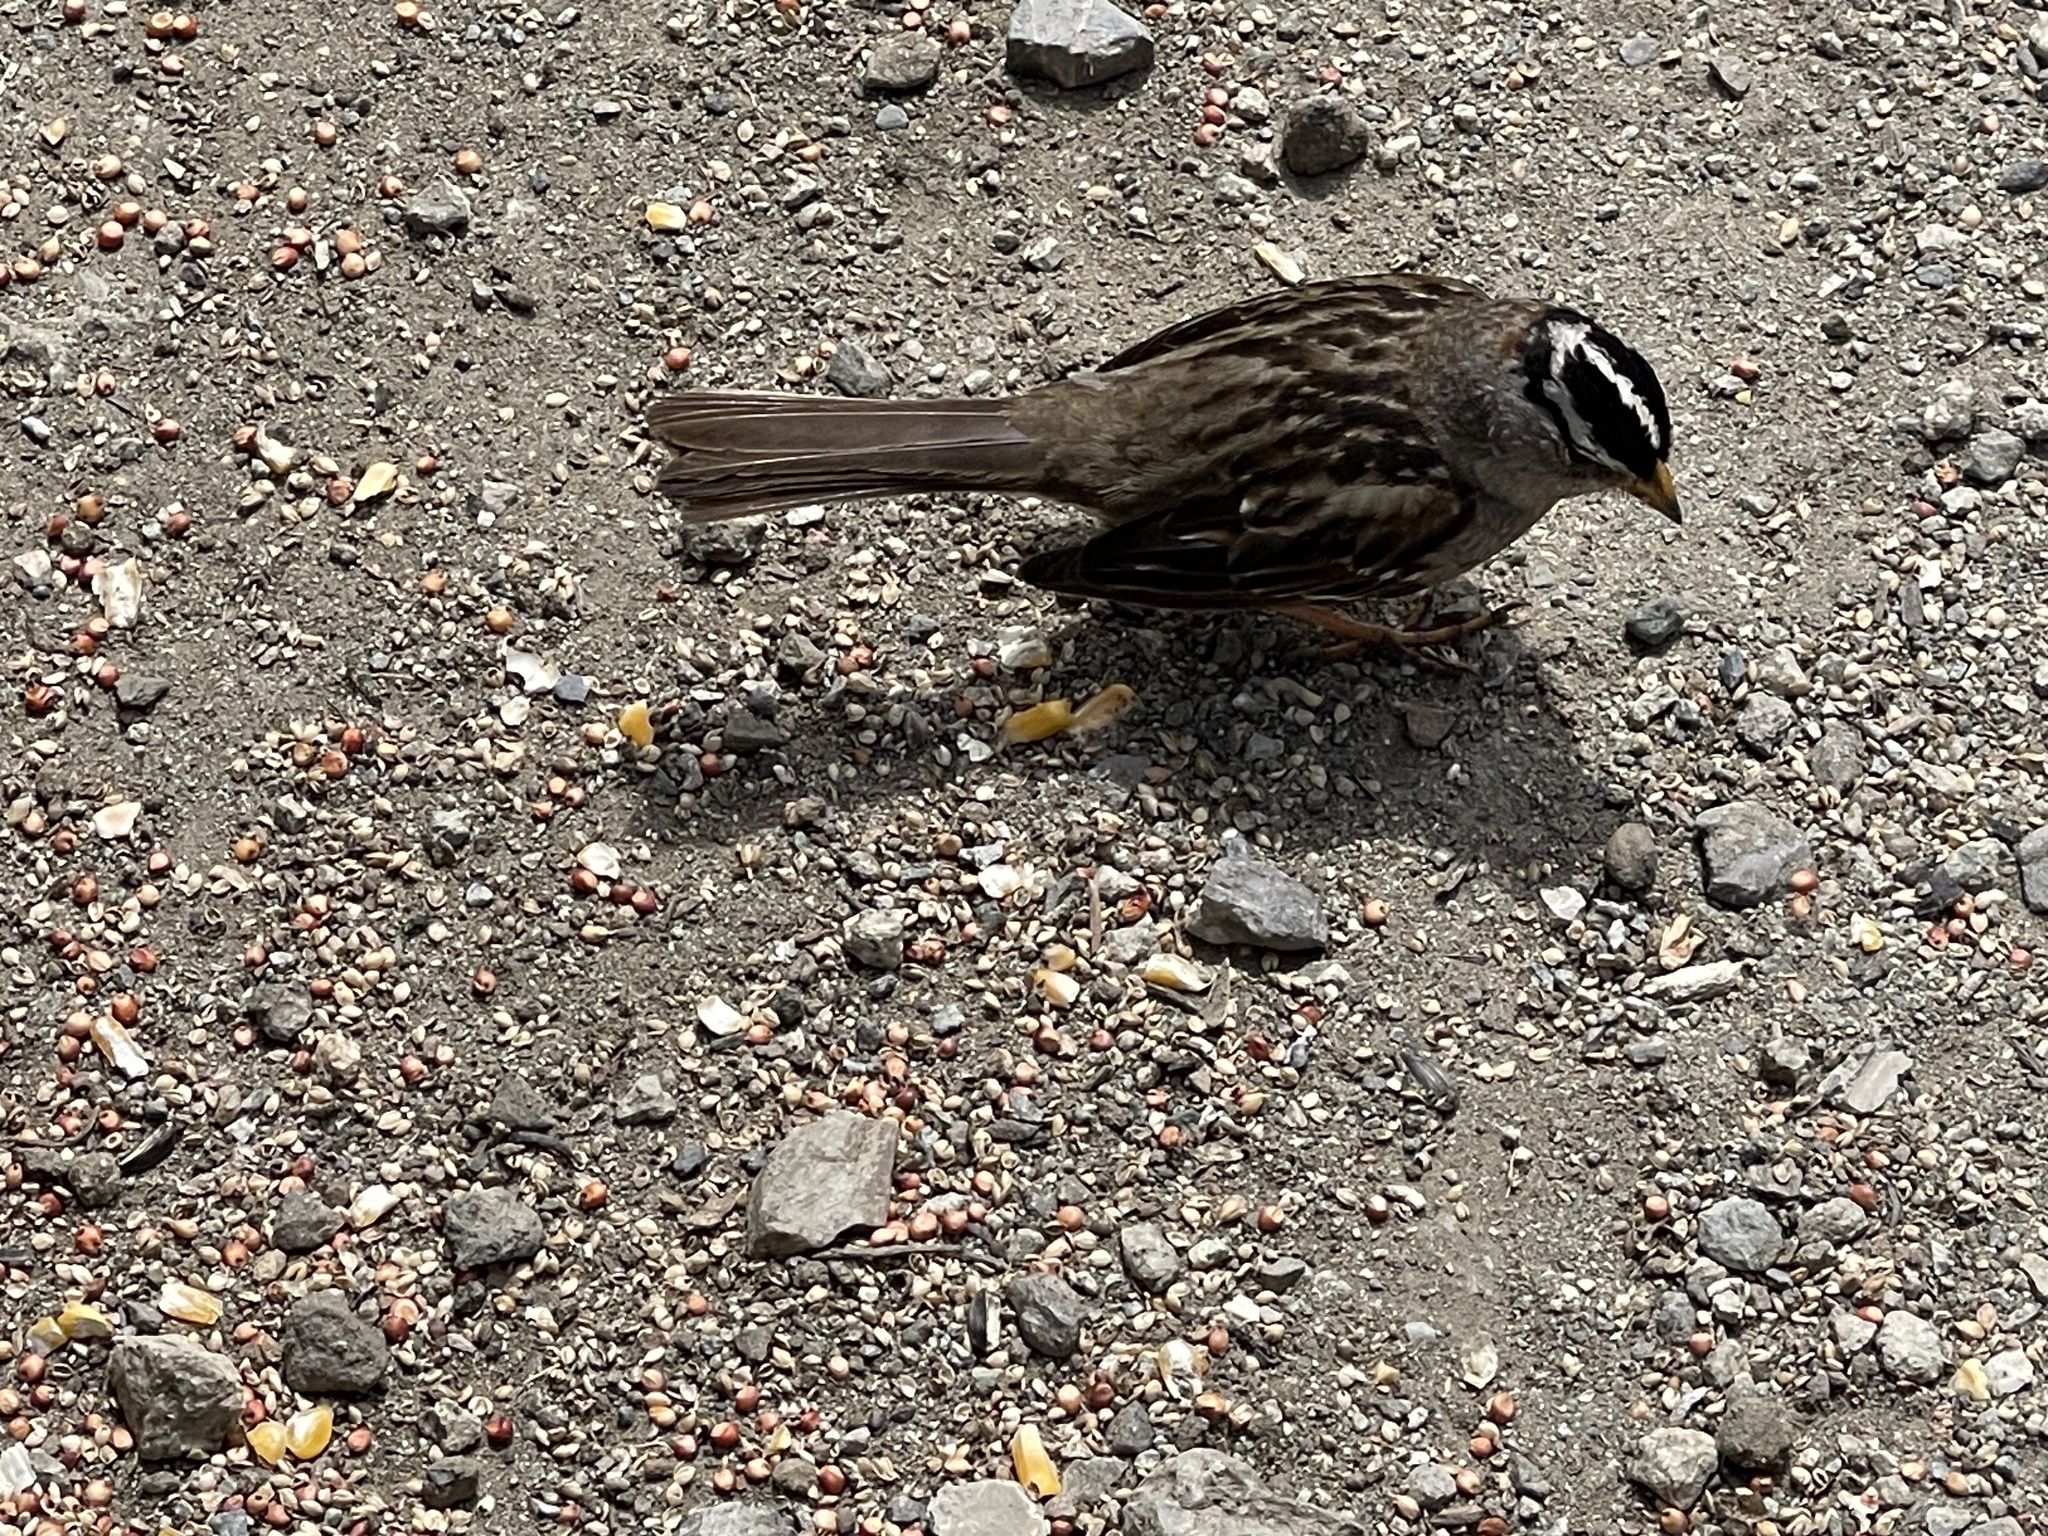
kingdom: Animalia
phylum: Chordata
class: Aves
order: Passeriformes
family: Passerellidae
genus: Zonotrichia
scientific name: Zonotrichia leucophrys
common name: White-crowned sparrow
